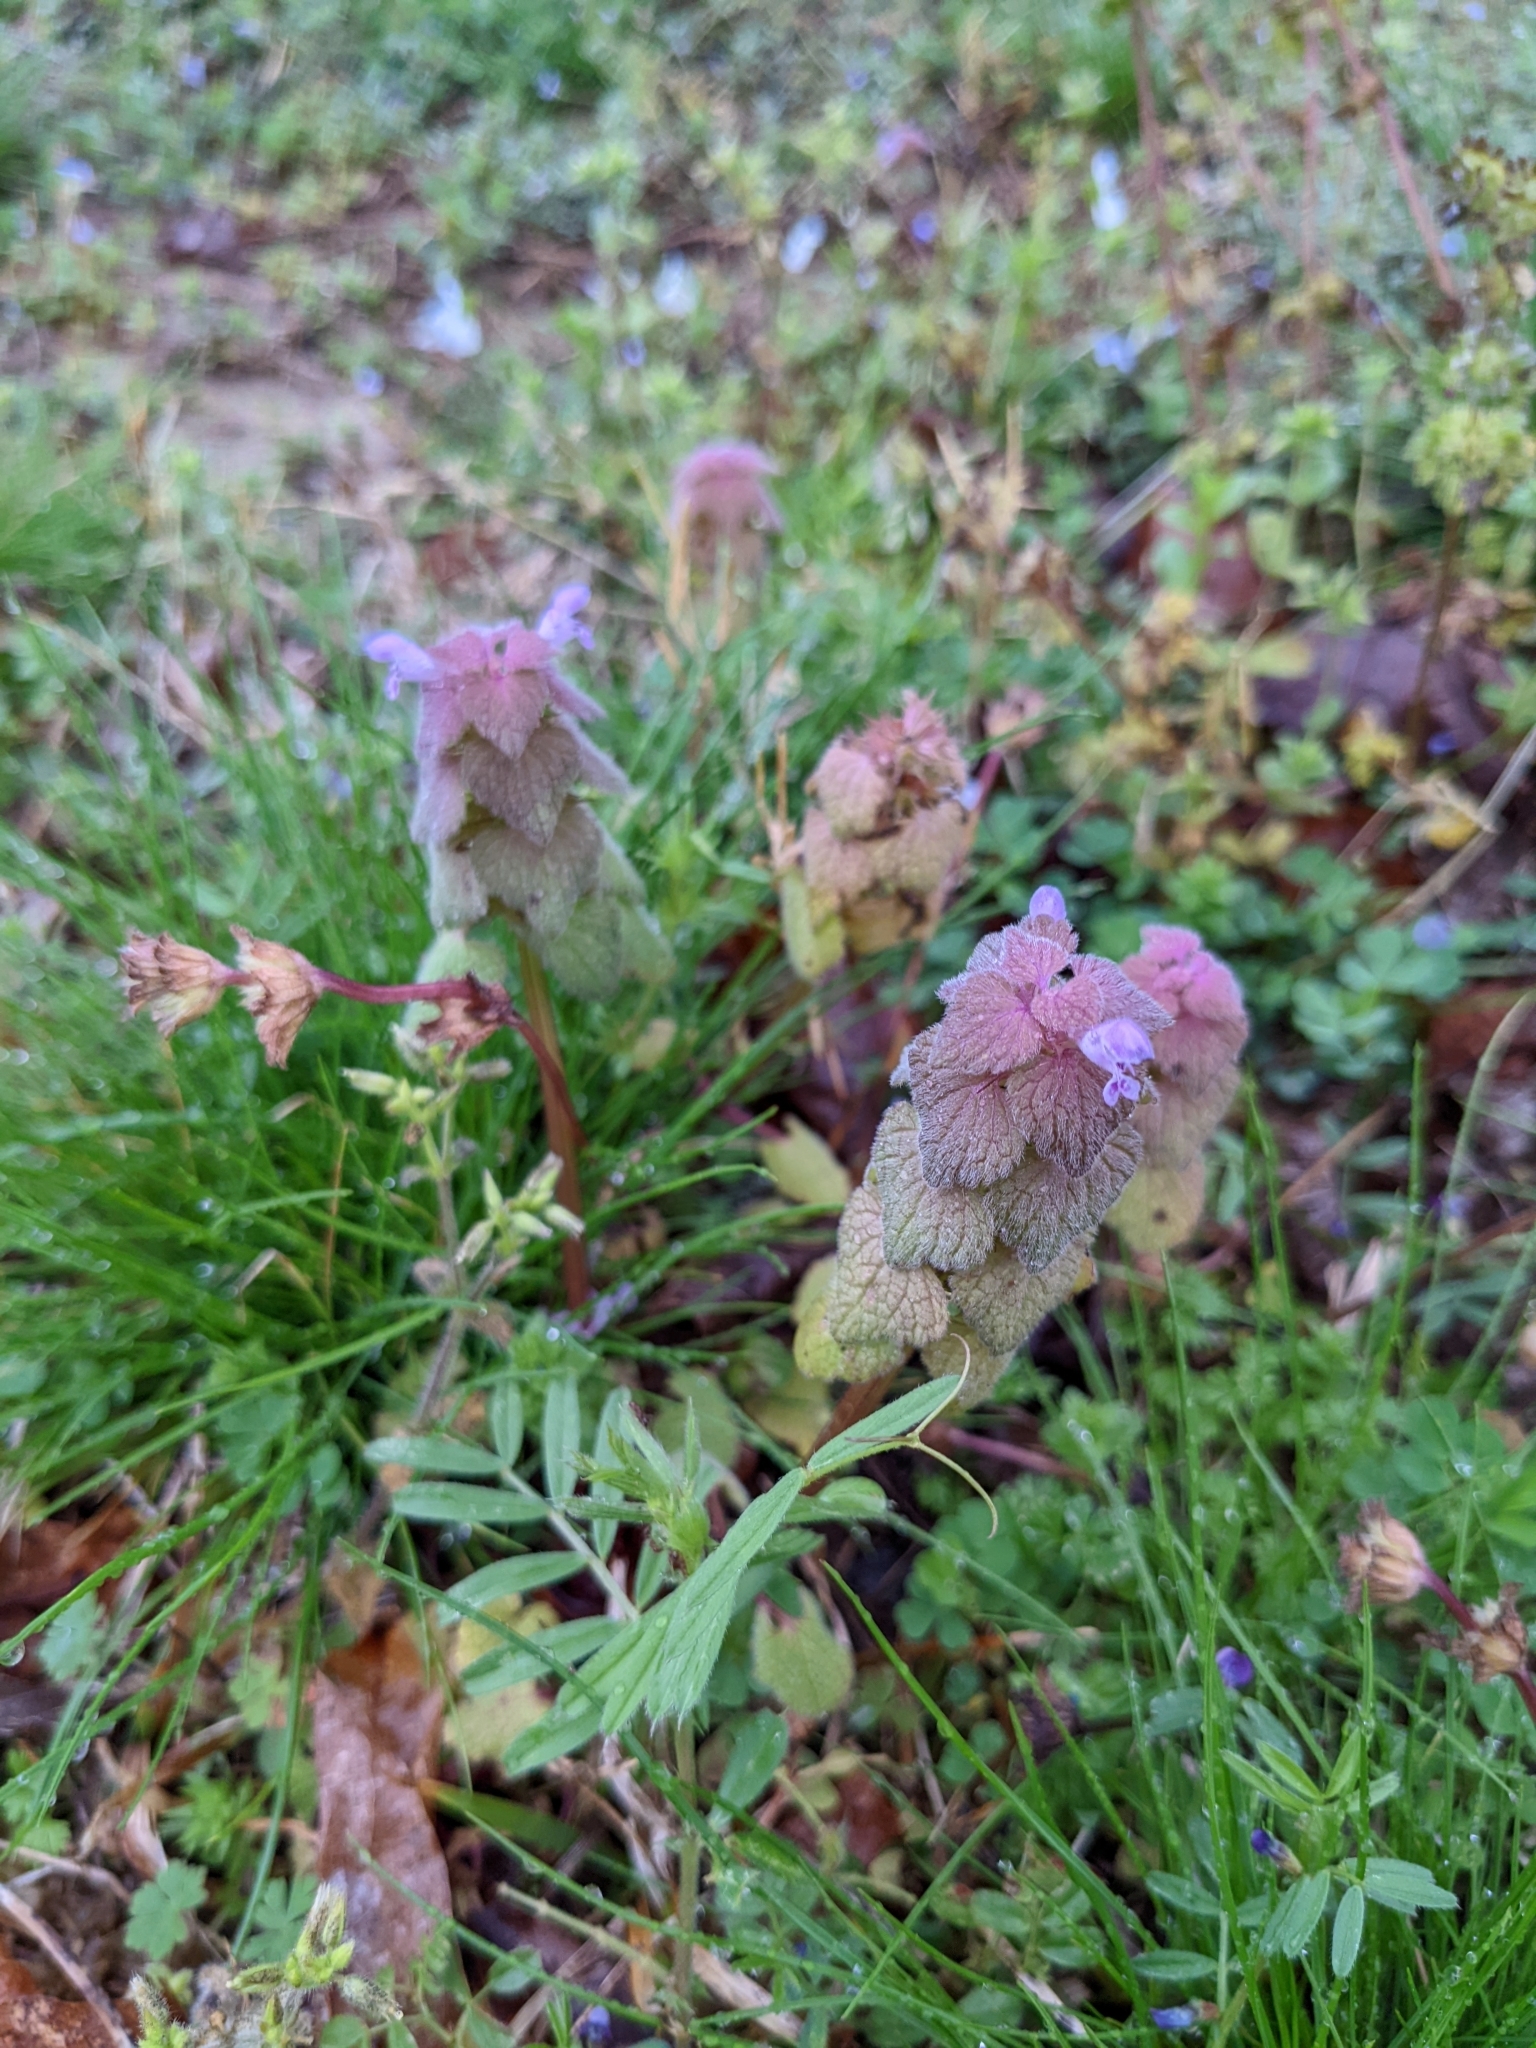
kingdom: Plantae
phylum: Tracheophyta
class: Magnoliopsida
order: Lamiales
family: Lamiaceae
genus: Lamium
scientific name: Lamium purpureum
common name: Red dead-nettle
